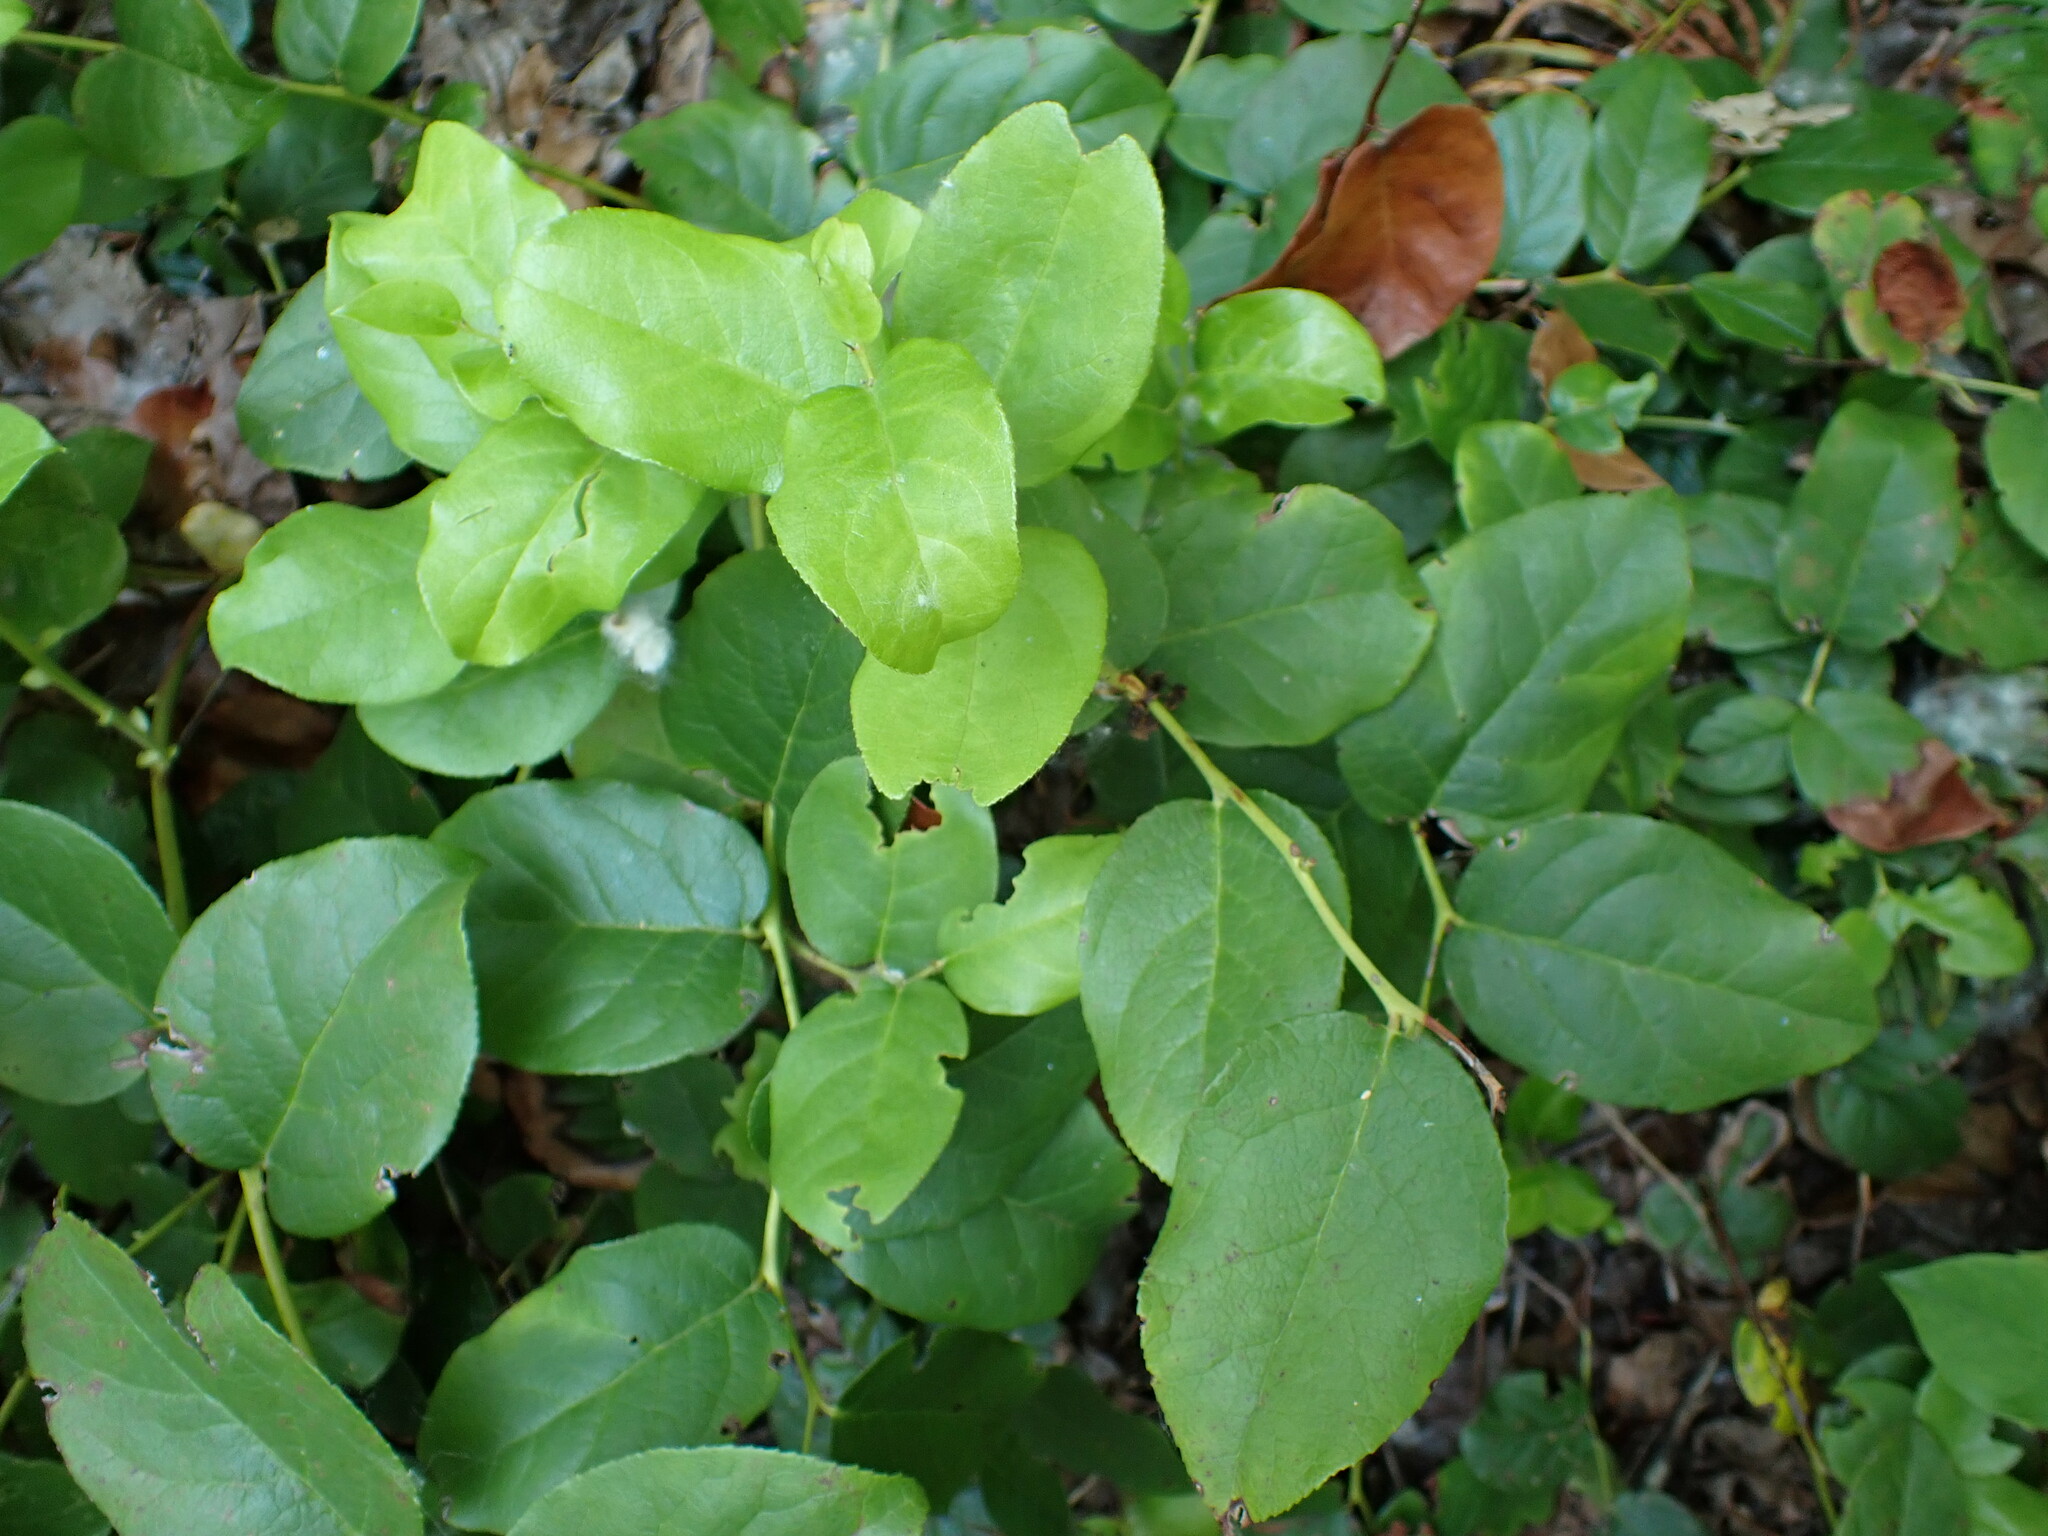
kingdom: Plantae
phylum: Tracheophyta
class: Magnoliopsida
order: Ericales
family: Ericaceae
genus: Gaultheria
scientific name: Gaultheria shallon
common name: Shallon
